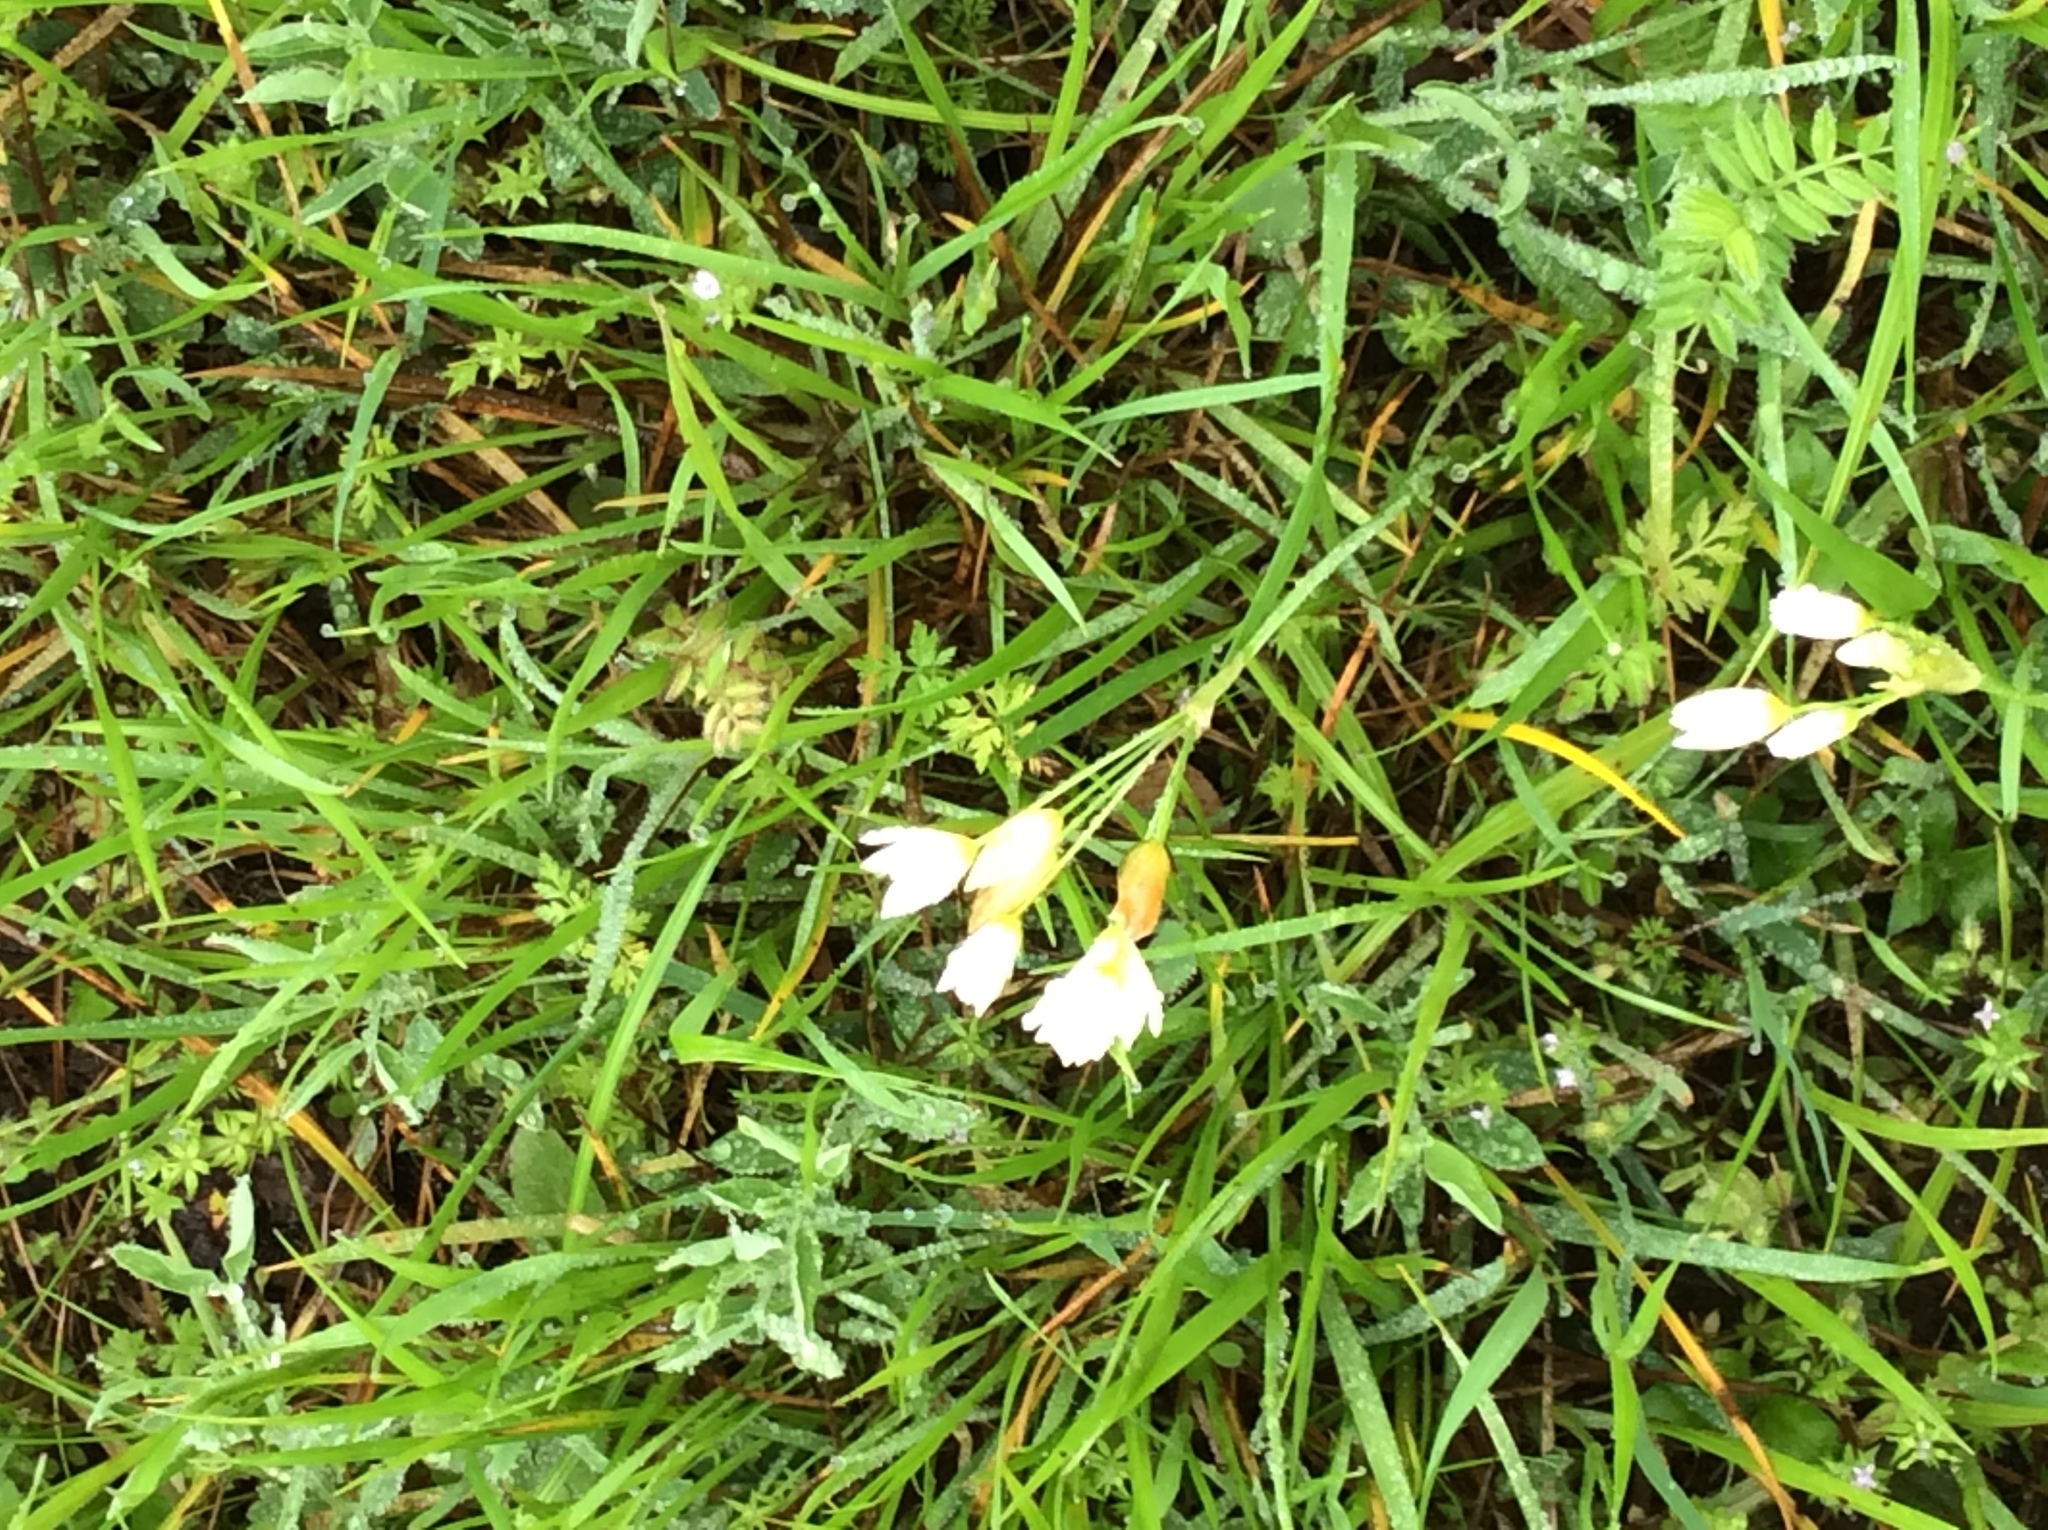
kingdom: Plantae
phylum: Tracheophyta
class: Liliopsida
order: Asparagales
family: Amaryllidaceae
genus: Nothoscordum
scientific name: Nothoscordum bivalve
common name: Crow-poison
